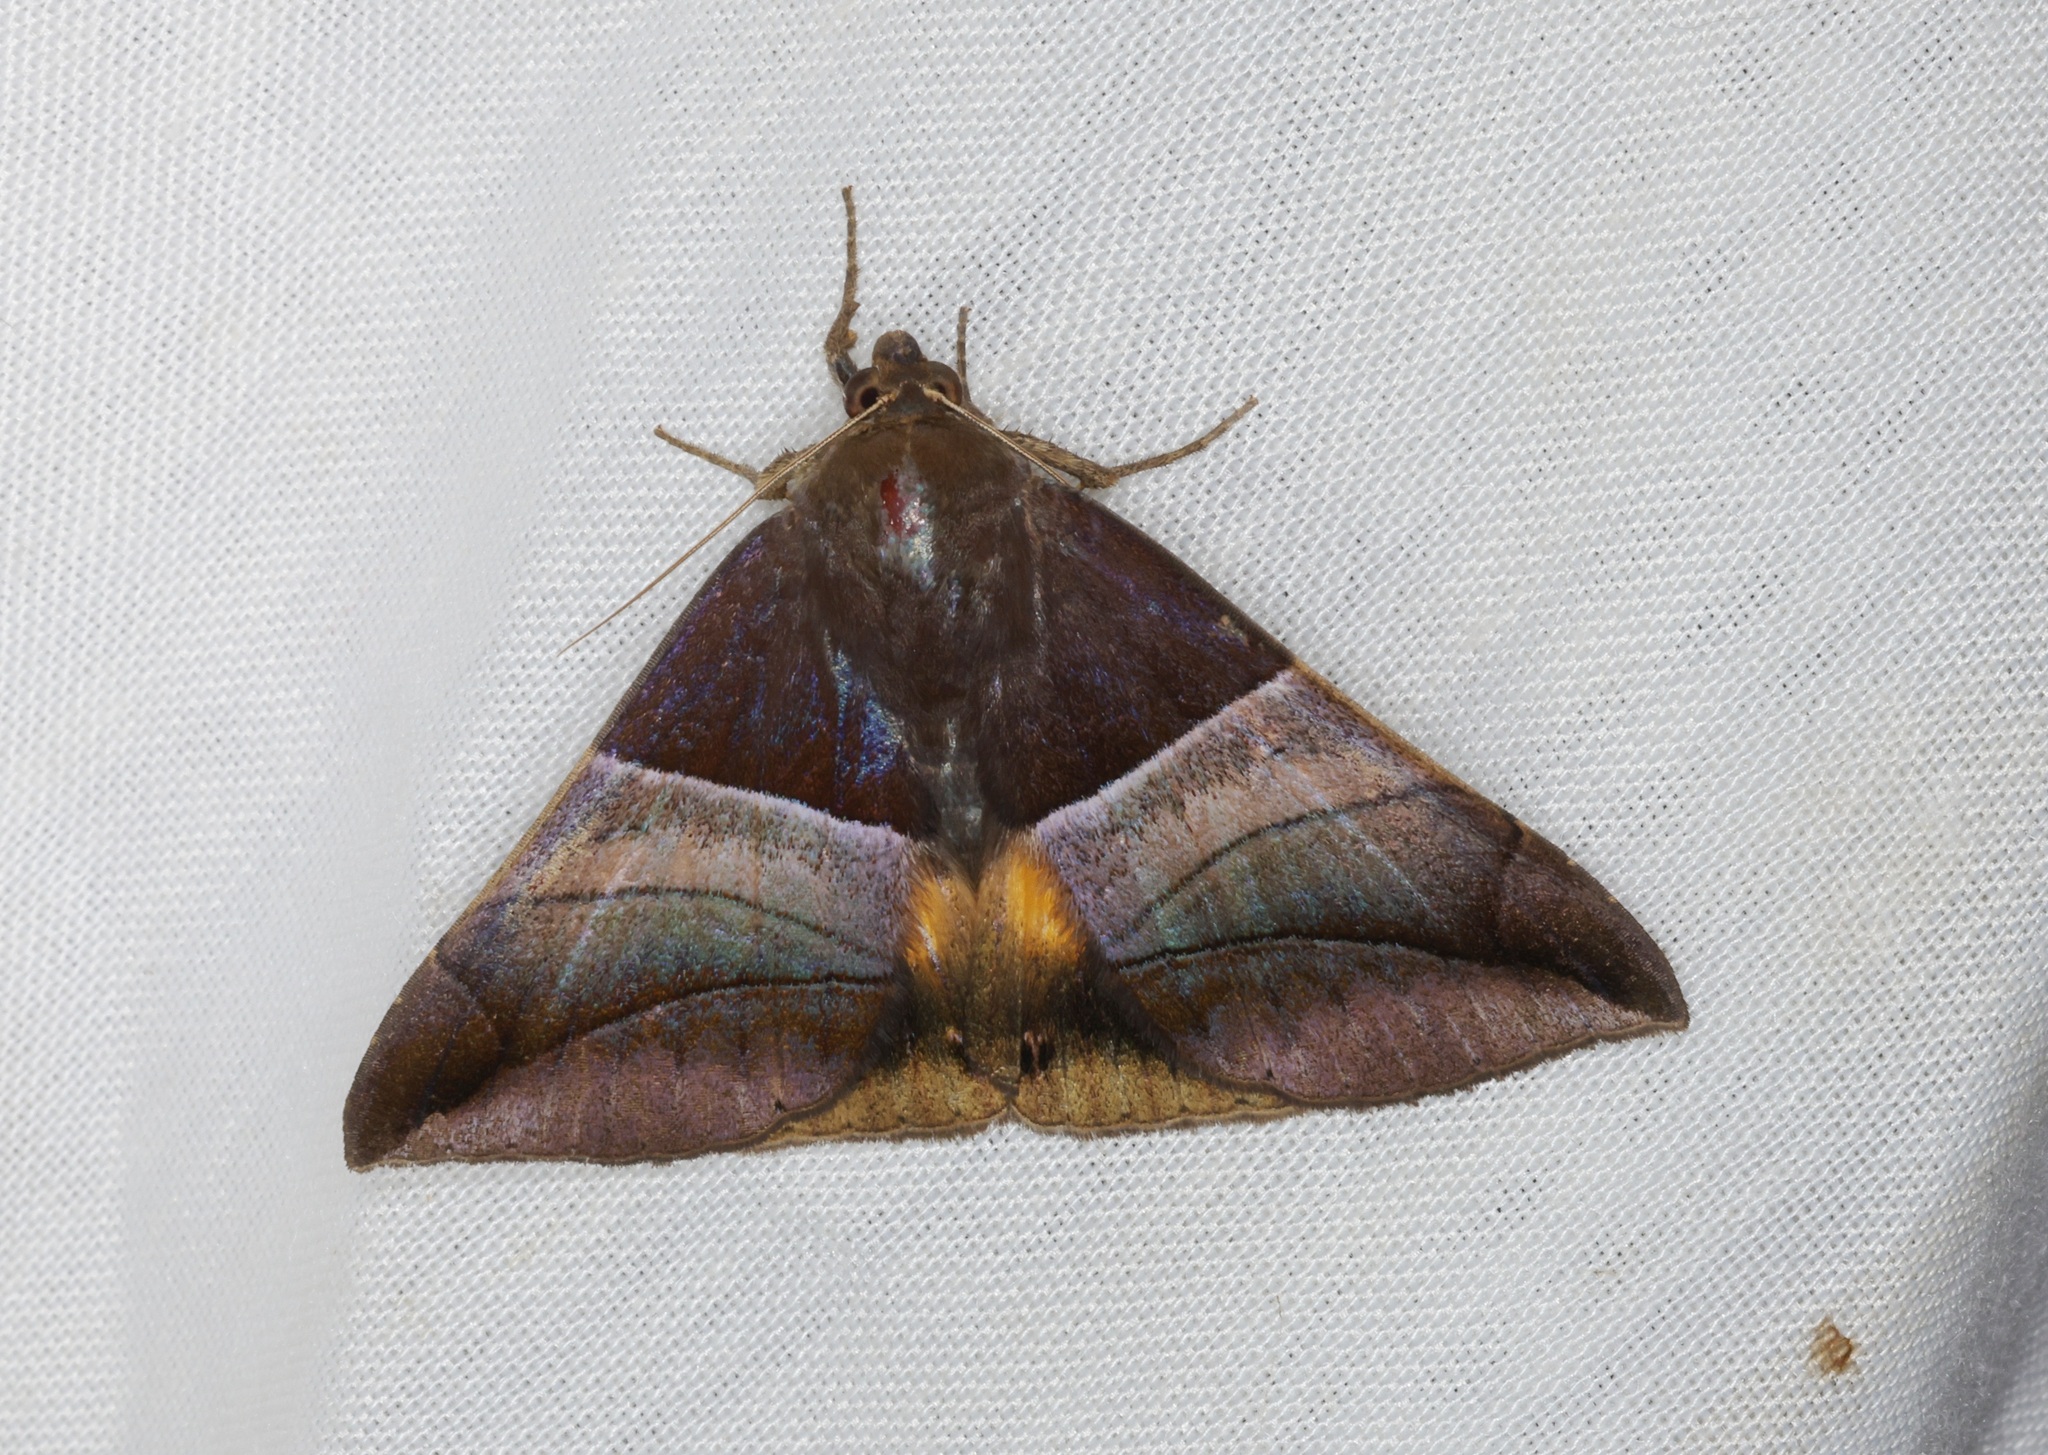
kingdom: Animalia
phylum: Arthropoda
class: Insecta
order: Lepidoptera
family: Erebidae
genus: Bastilla
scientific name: Bastilla fulvotaenia
